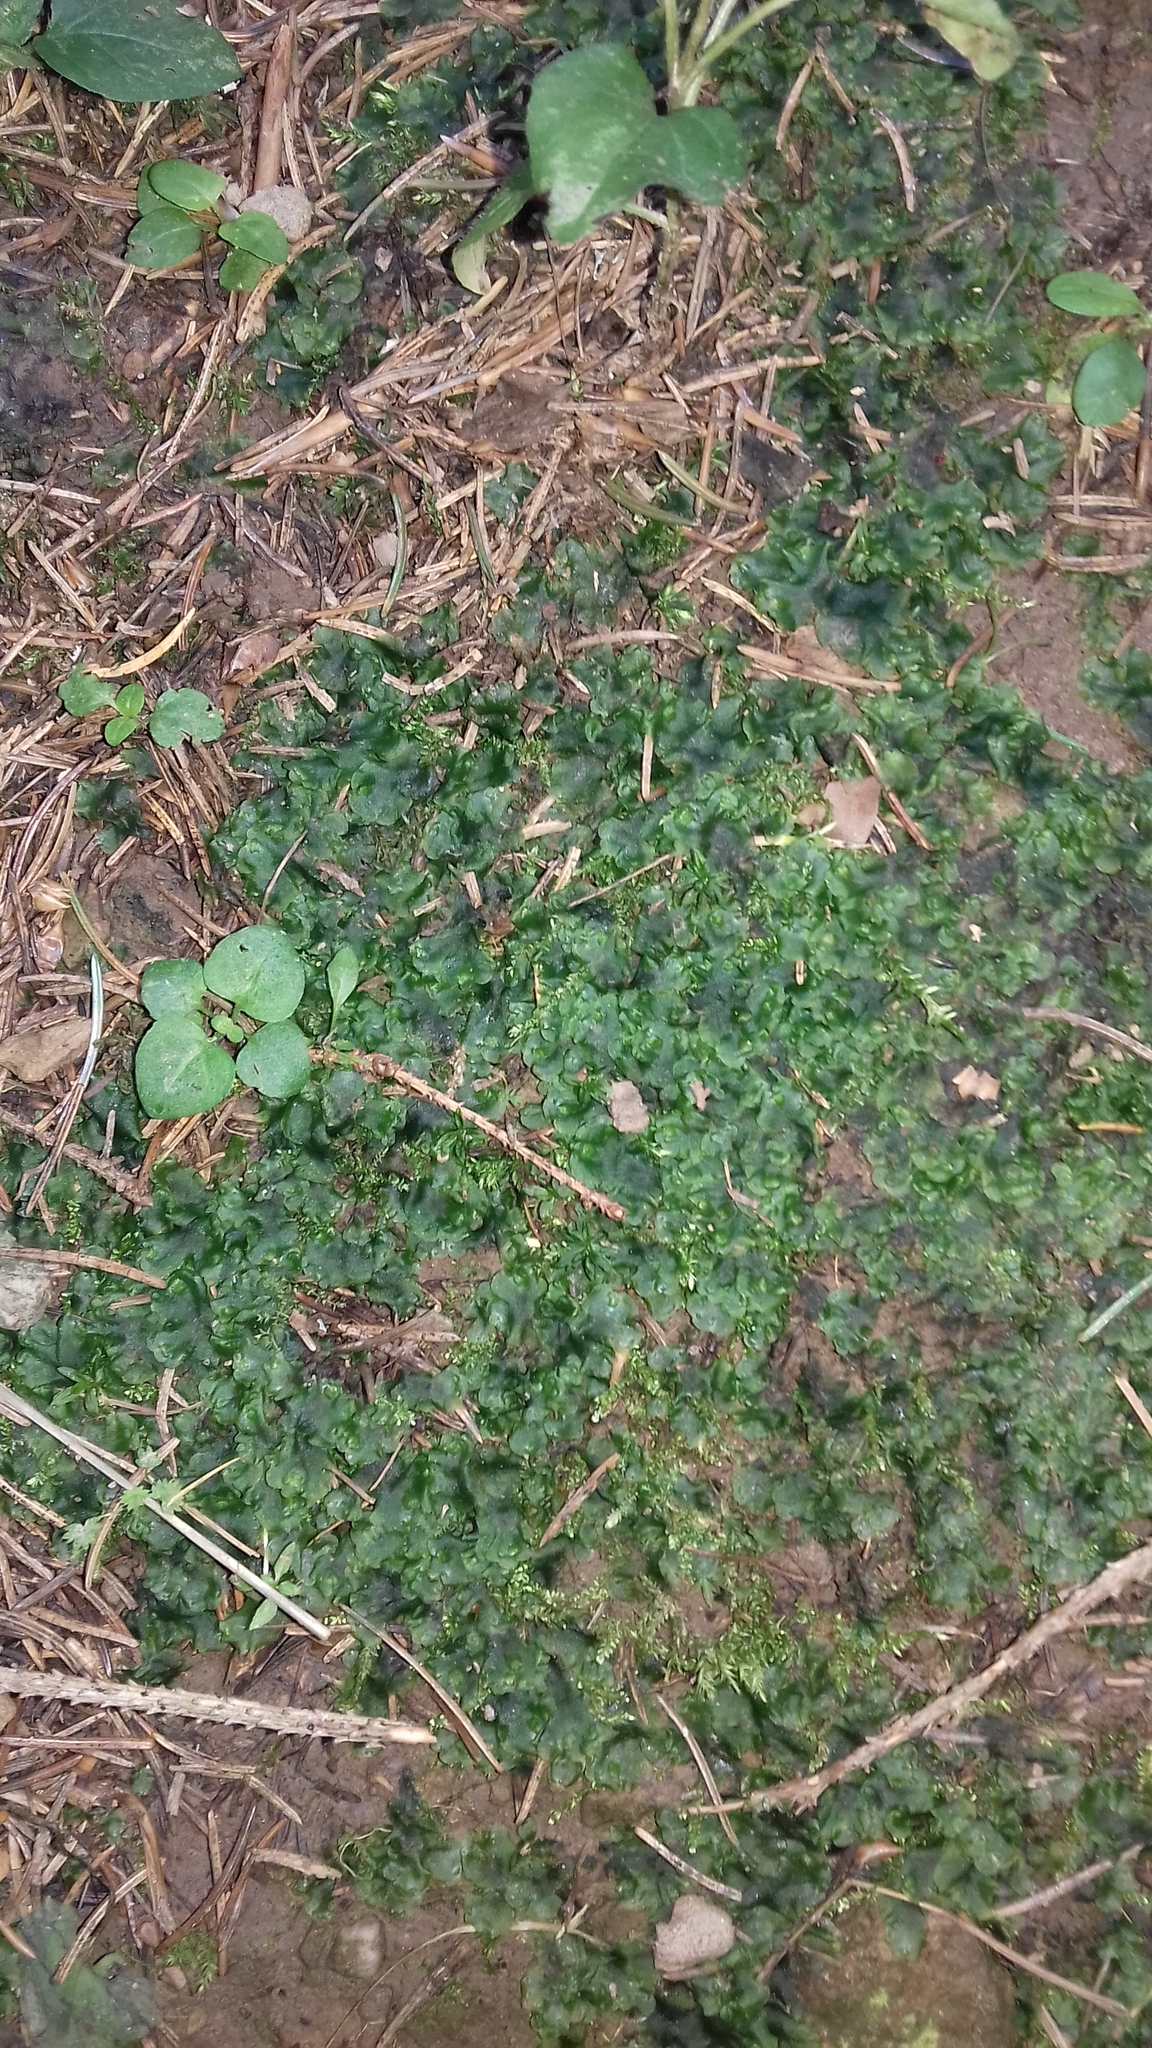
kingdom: Plantae
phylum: Marchantiophyta
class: Jungermanniopsida
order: Pelliales
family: Pelliaceae
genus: Pellia
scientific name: Pellia epiphylla
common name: Common pellia
